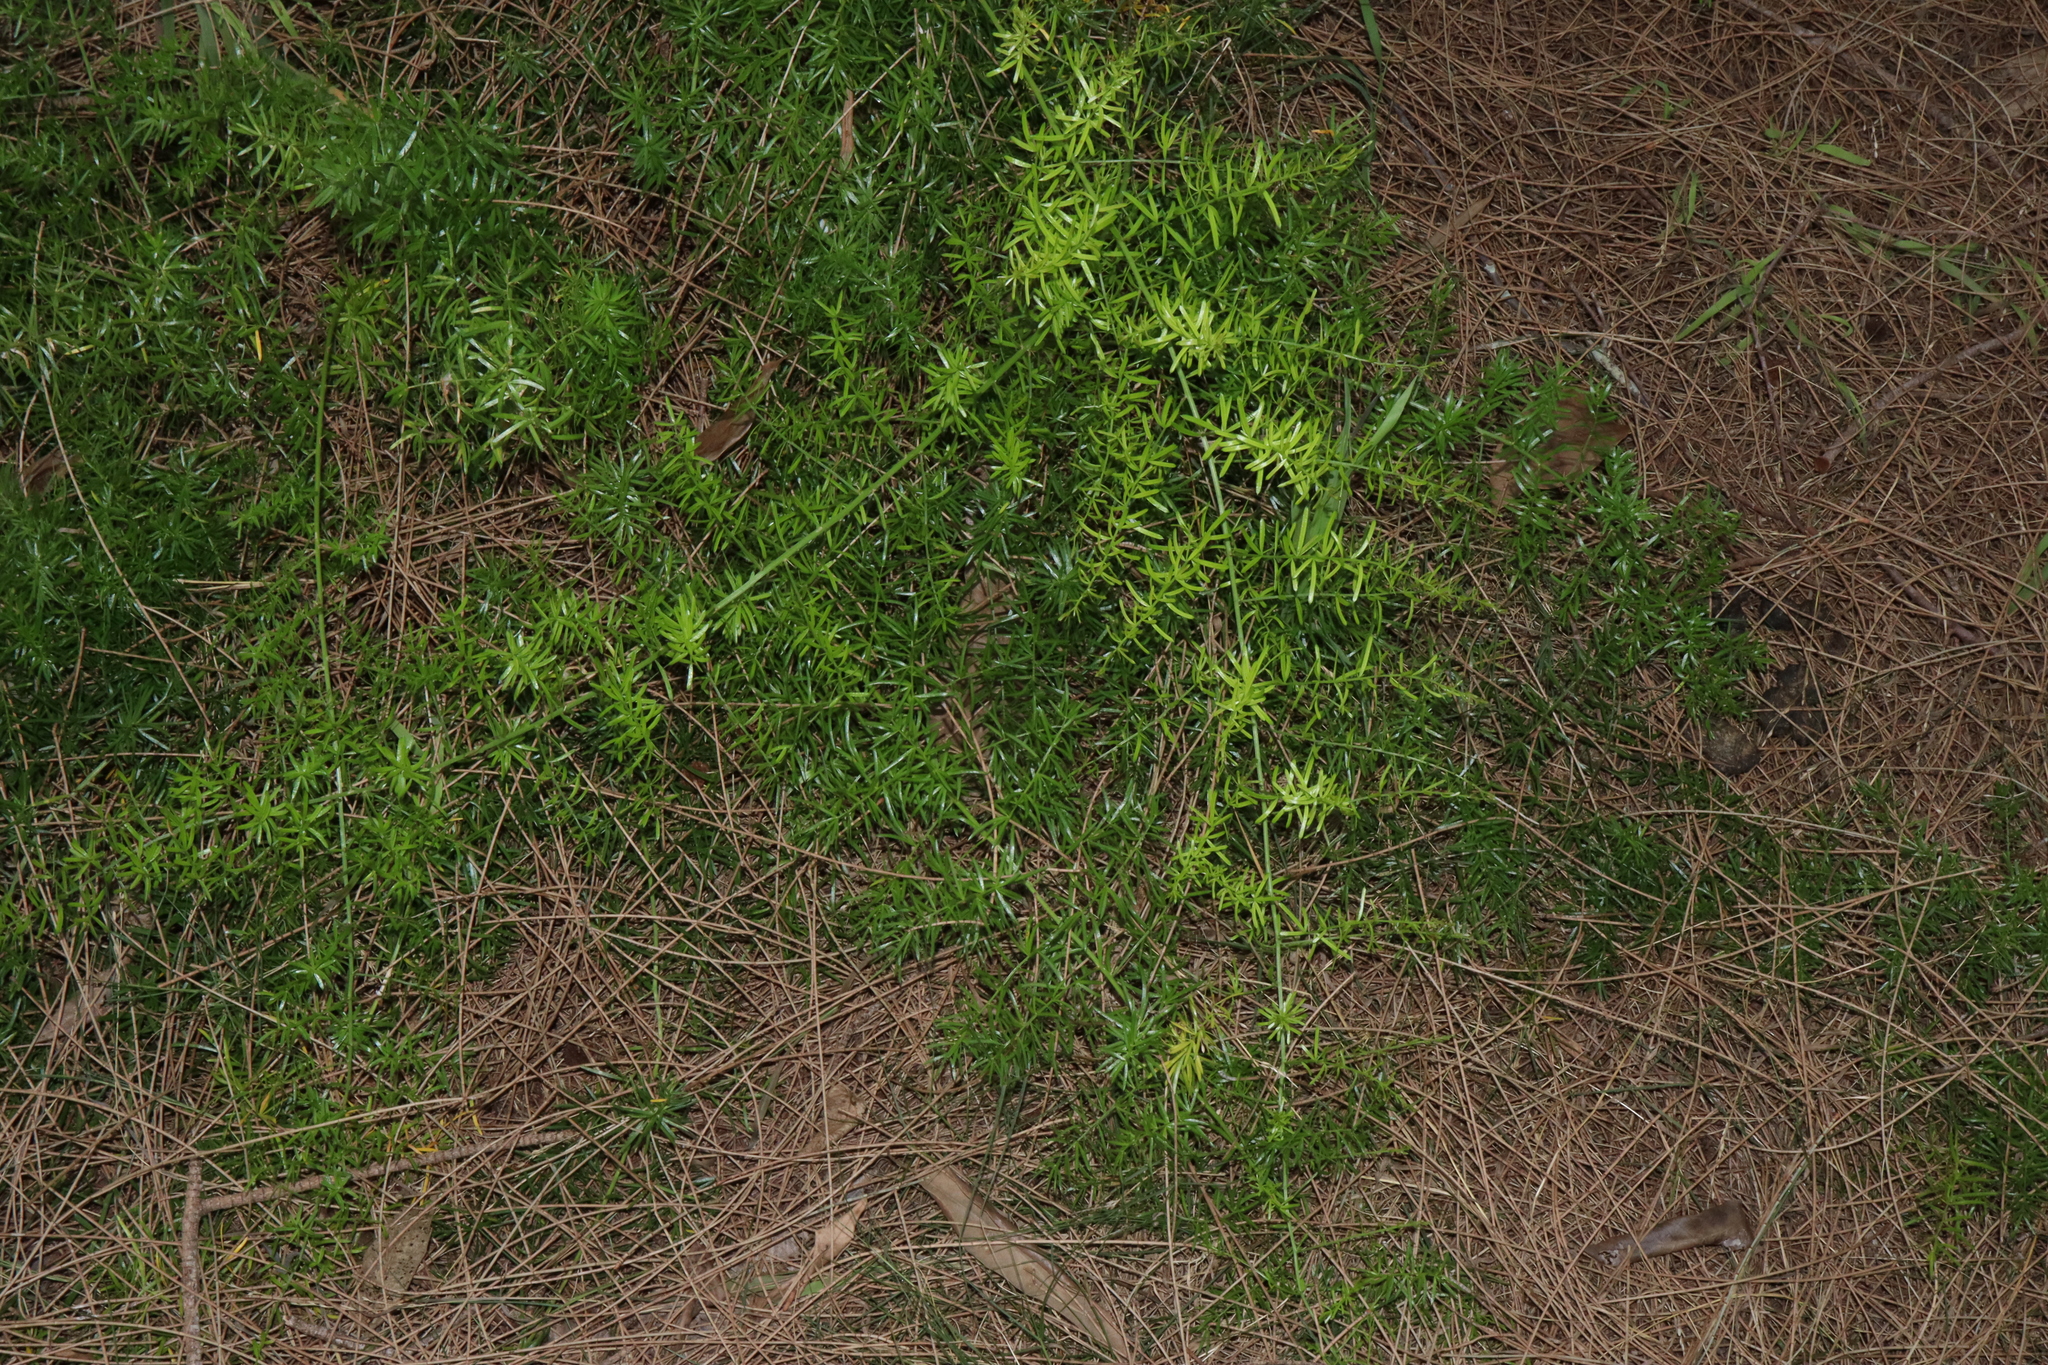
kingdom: Plantae
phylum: Tracheophyta
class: Liliopsida
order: Asparagales
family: Asparagaceae
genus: Asparagus
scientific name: Asparagus aethiopicus
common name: Sprenger's asparagus fern
